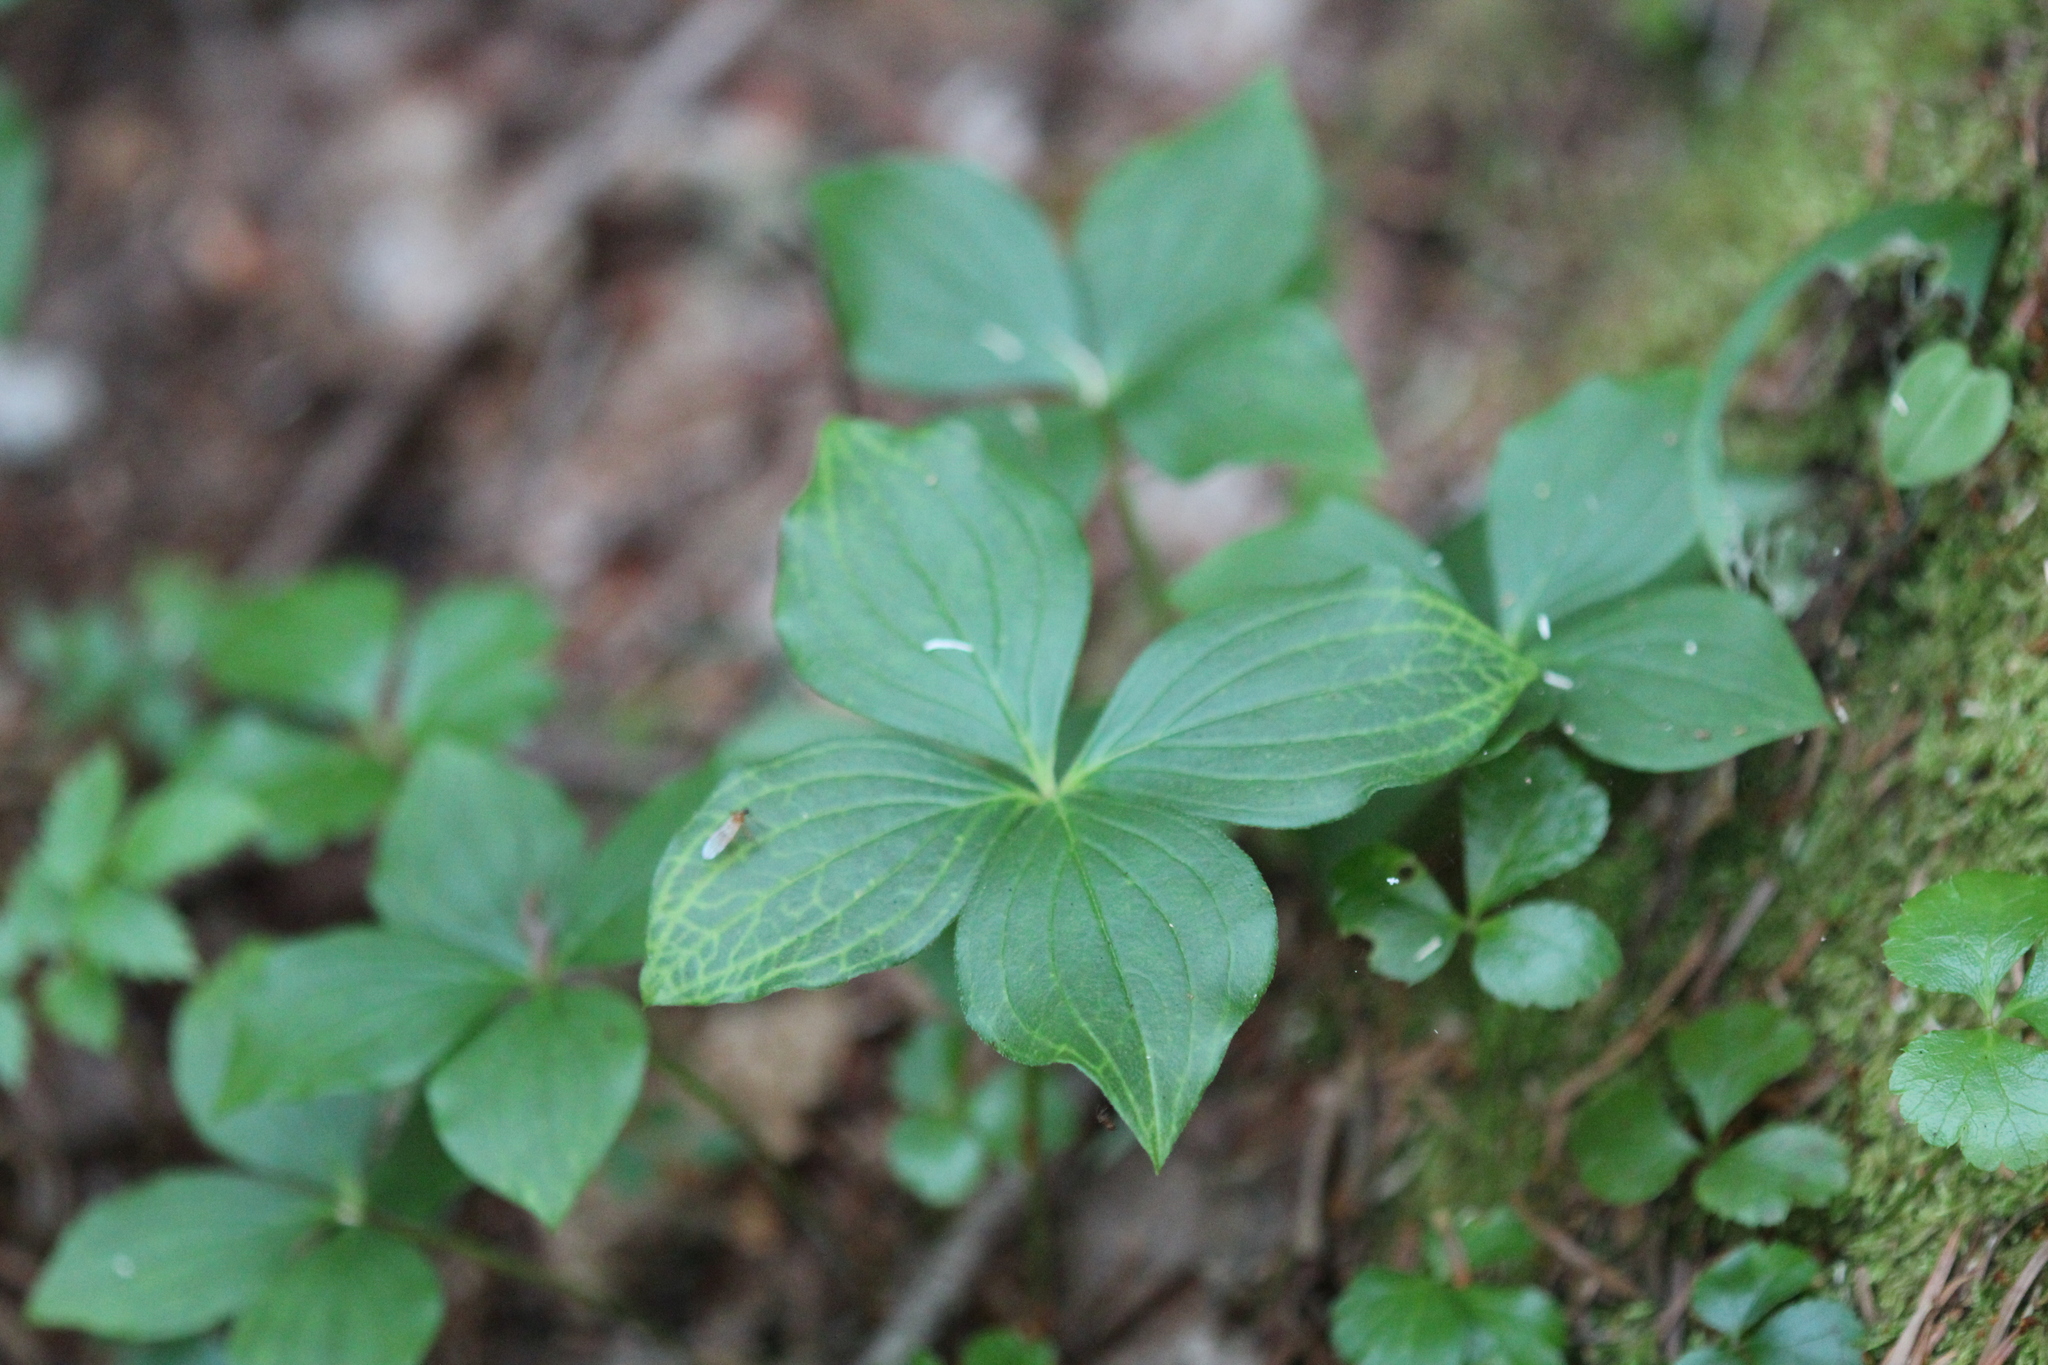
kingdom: Plantae
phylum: Tracheophyta
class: Magnoliopsida
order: Cornales
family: Cornaceae
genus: Cornus
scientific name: Cornus canadensis
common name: Creeping dogwood
